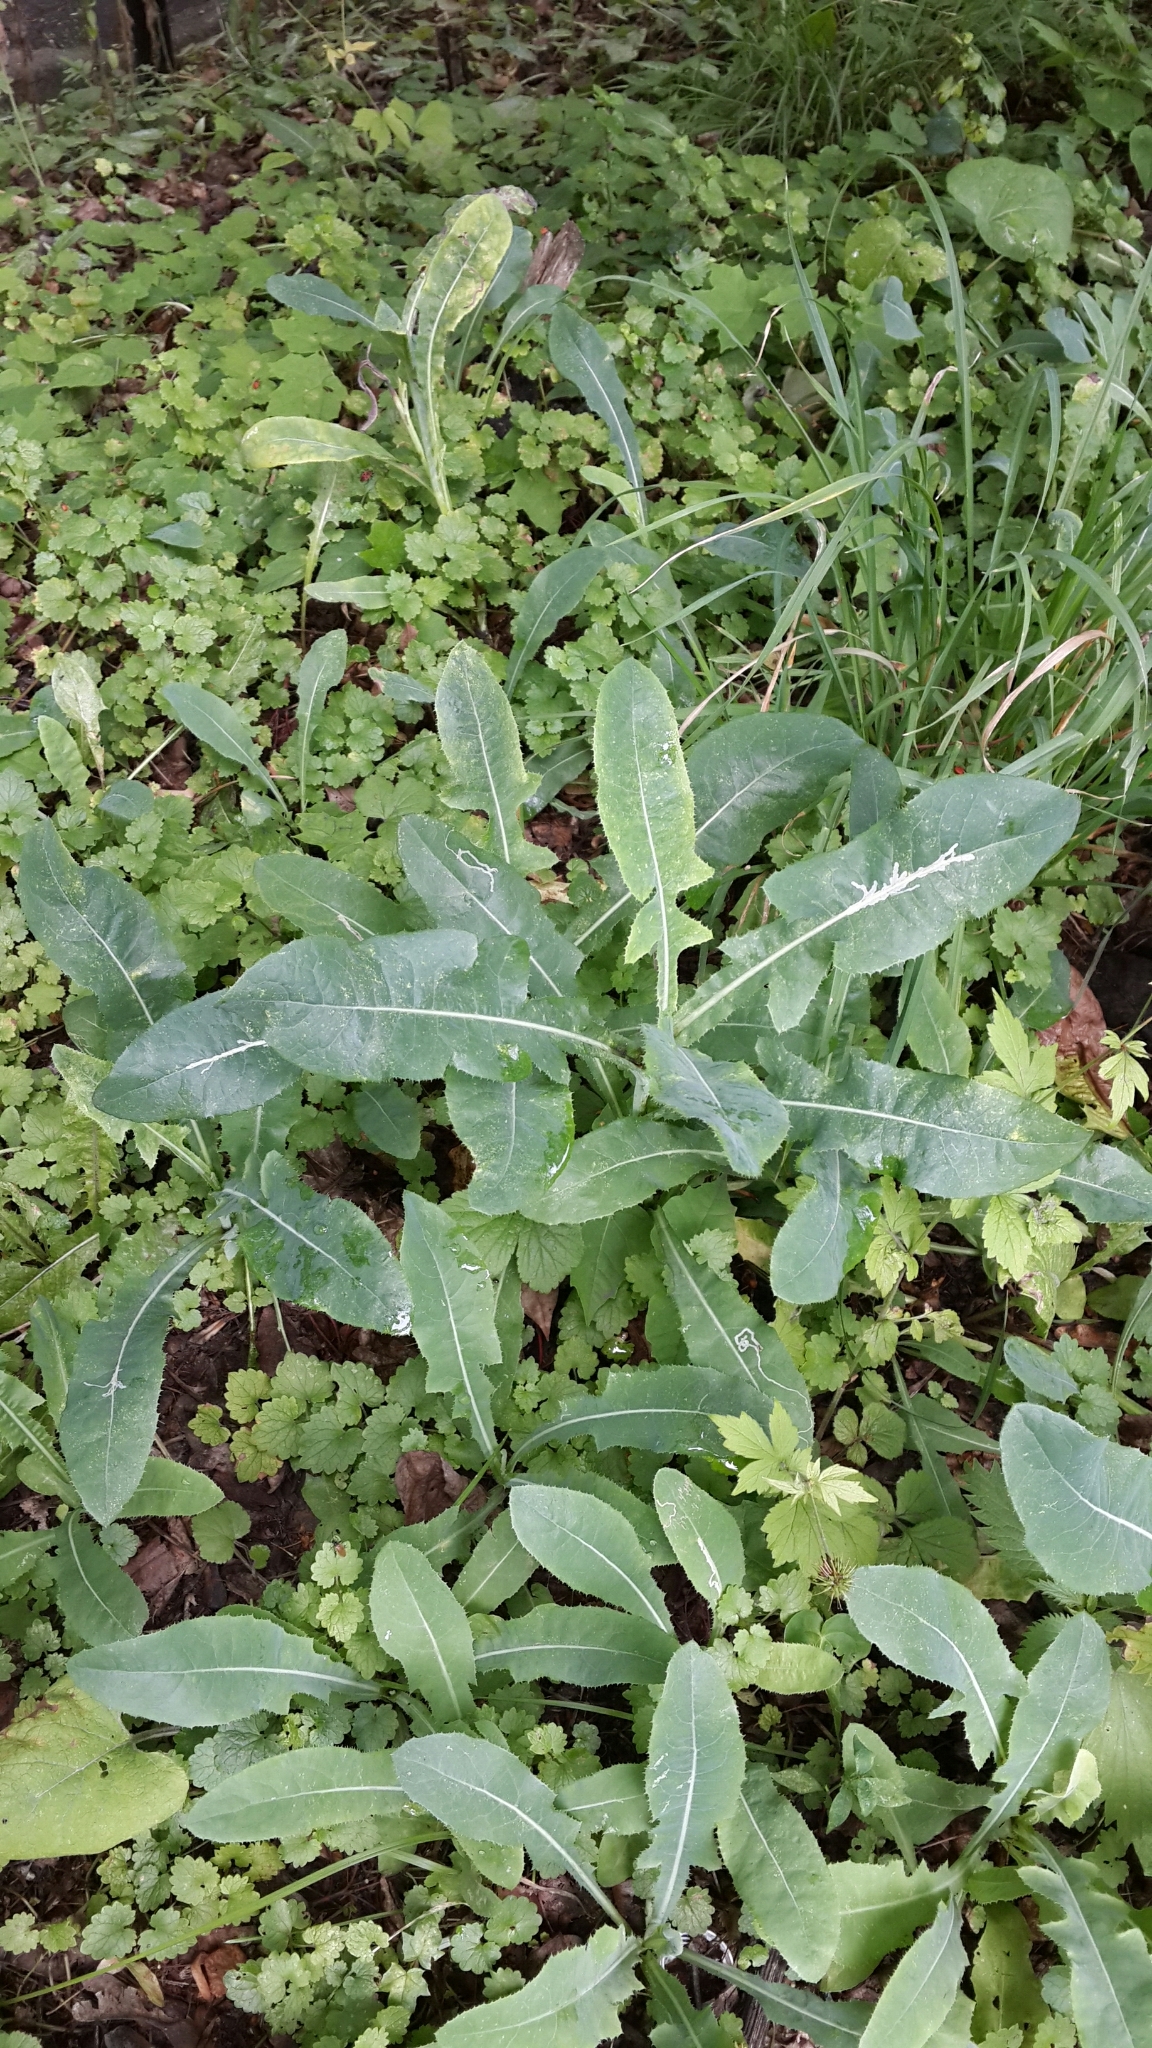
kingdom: Plantae
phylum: Tracheophyta
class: Magnoliopsida
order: Asterales
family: Asteraceae
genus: Sonchus
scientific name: Sonchus arvensis
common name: Perennial sow-thistle
